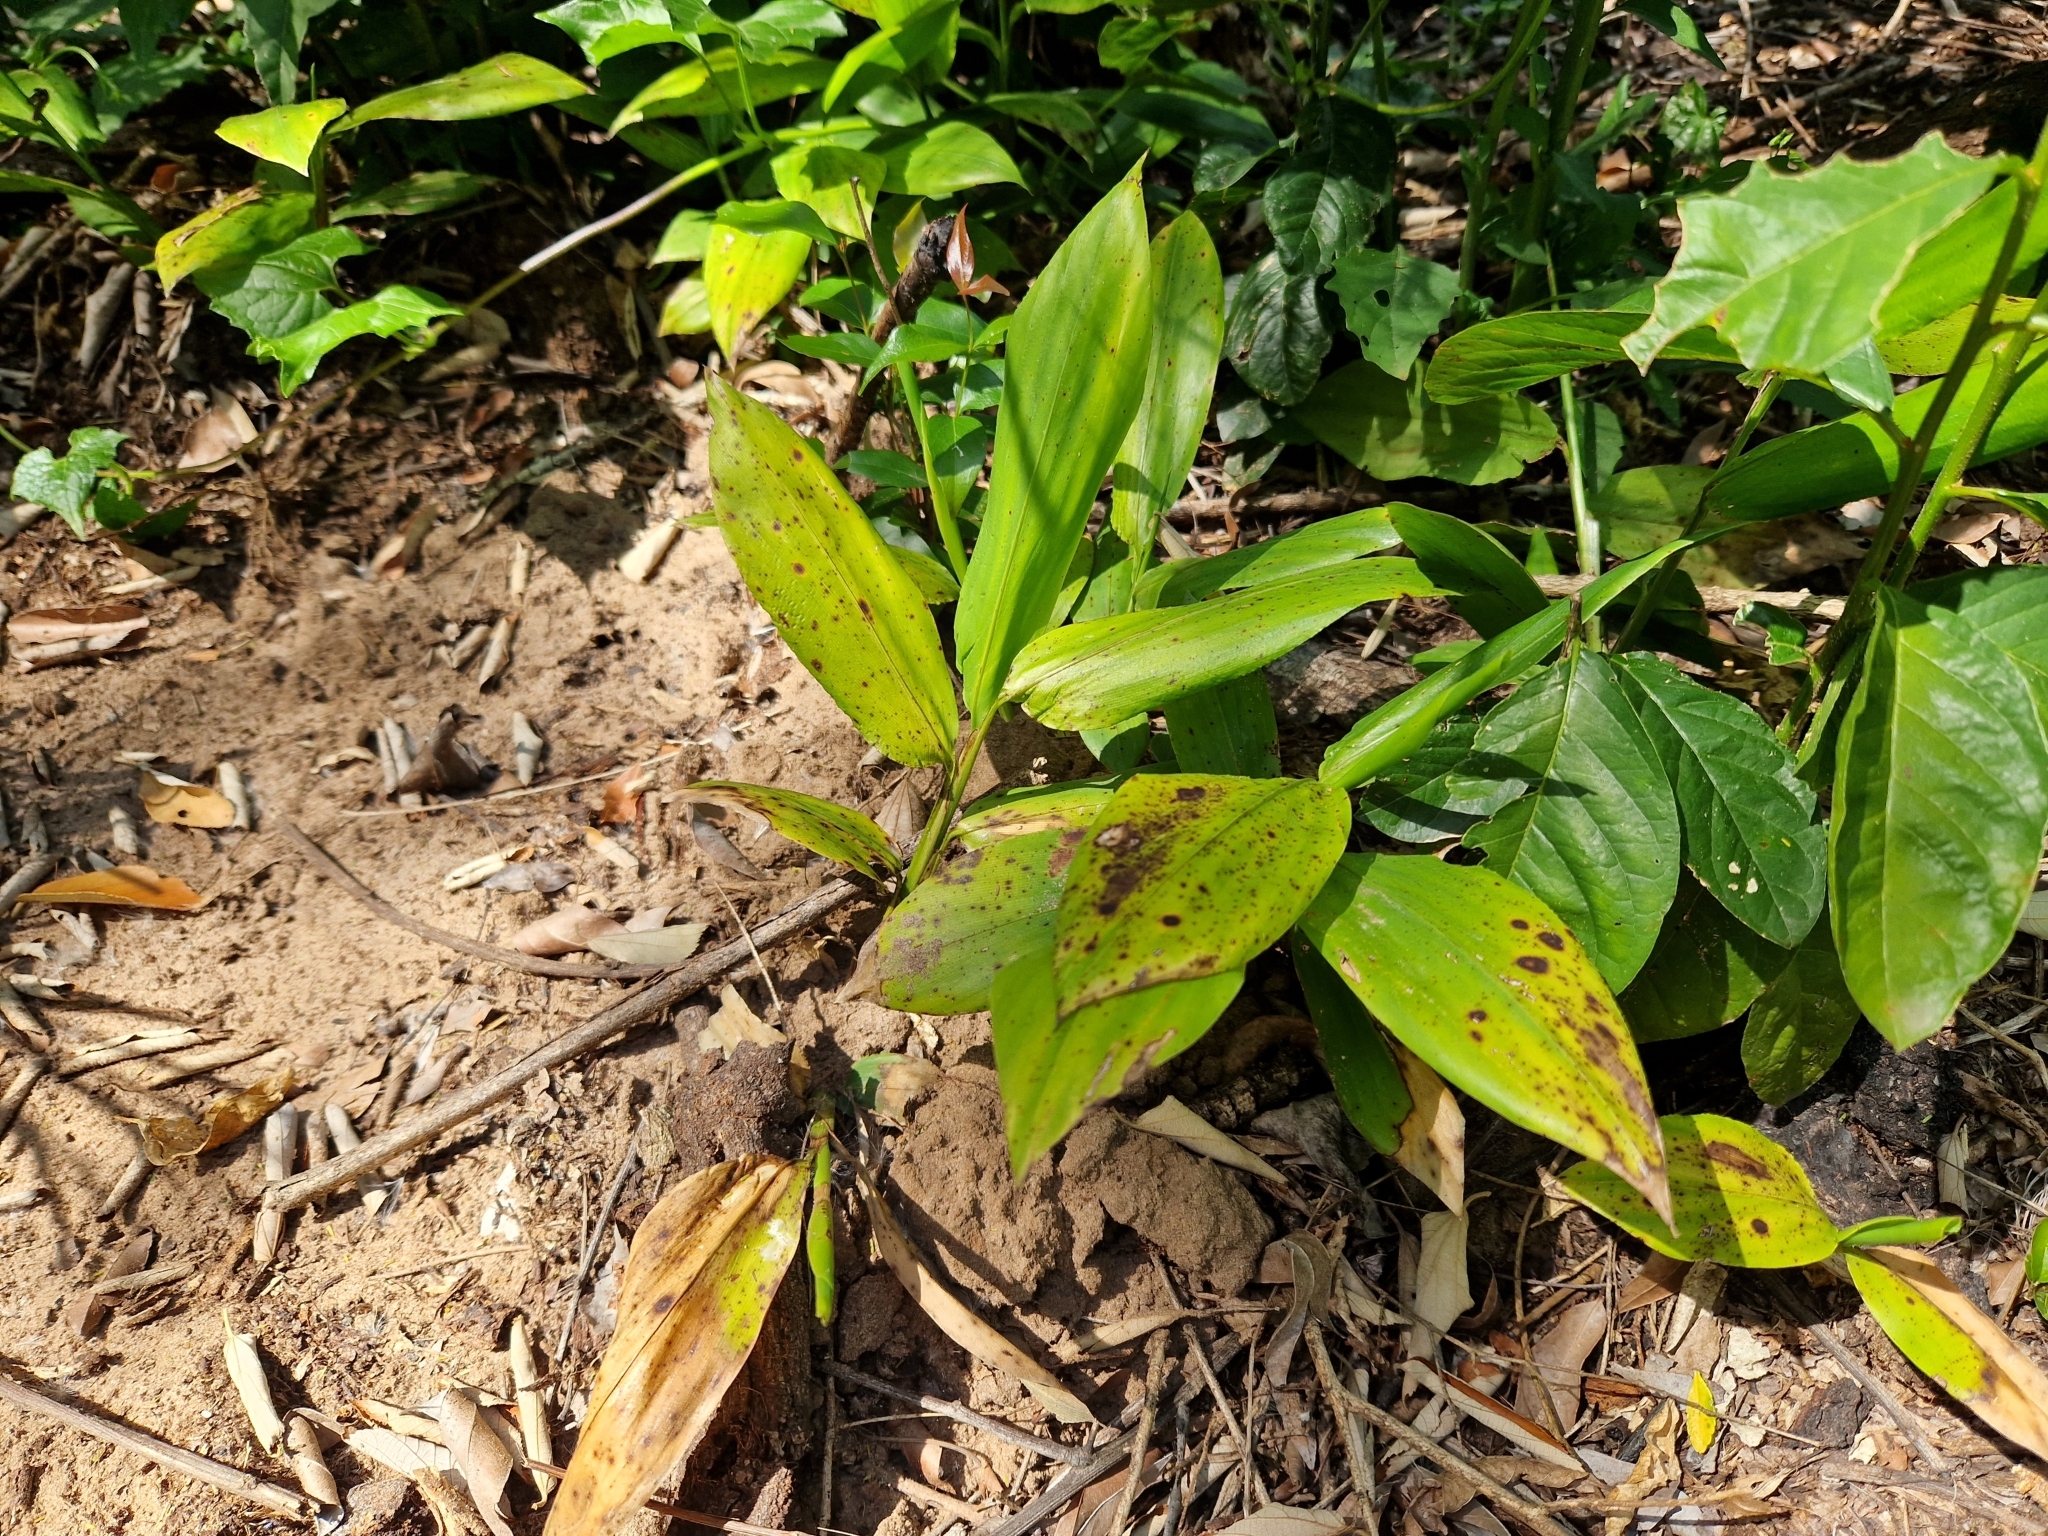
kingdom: Plantae
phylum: Tracheophyta
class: Liliopsida
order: Poales
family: Poaceae
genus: Pharus
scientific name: Pharus latifolius
